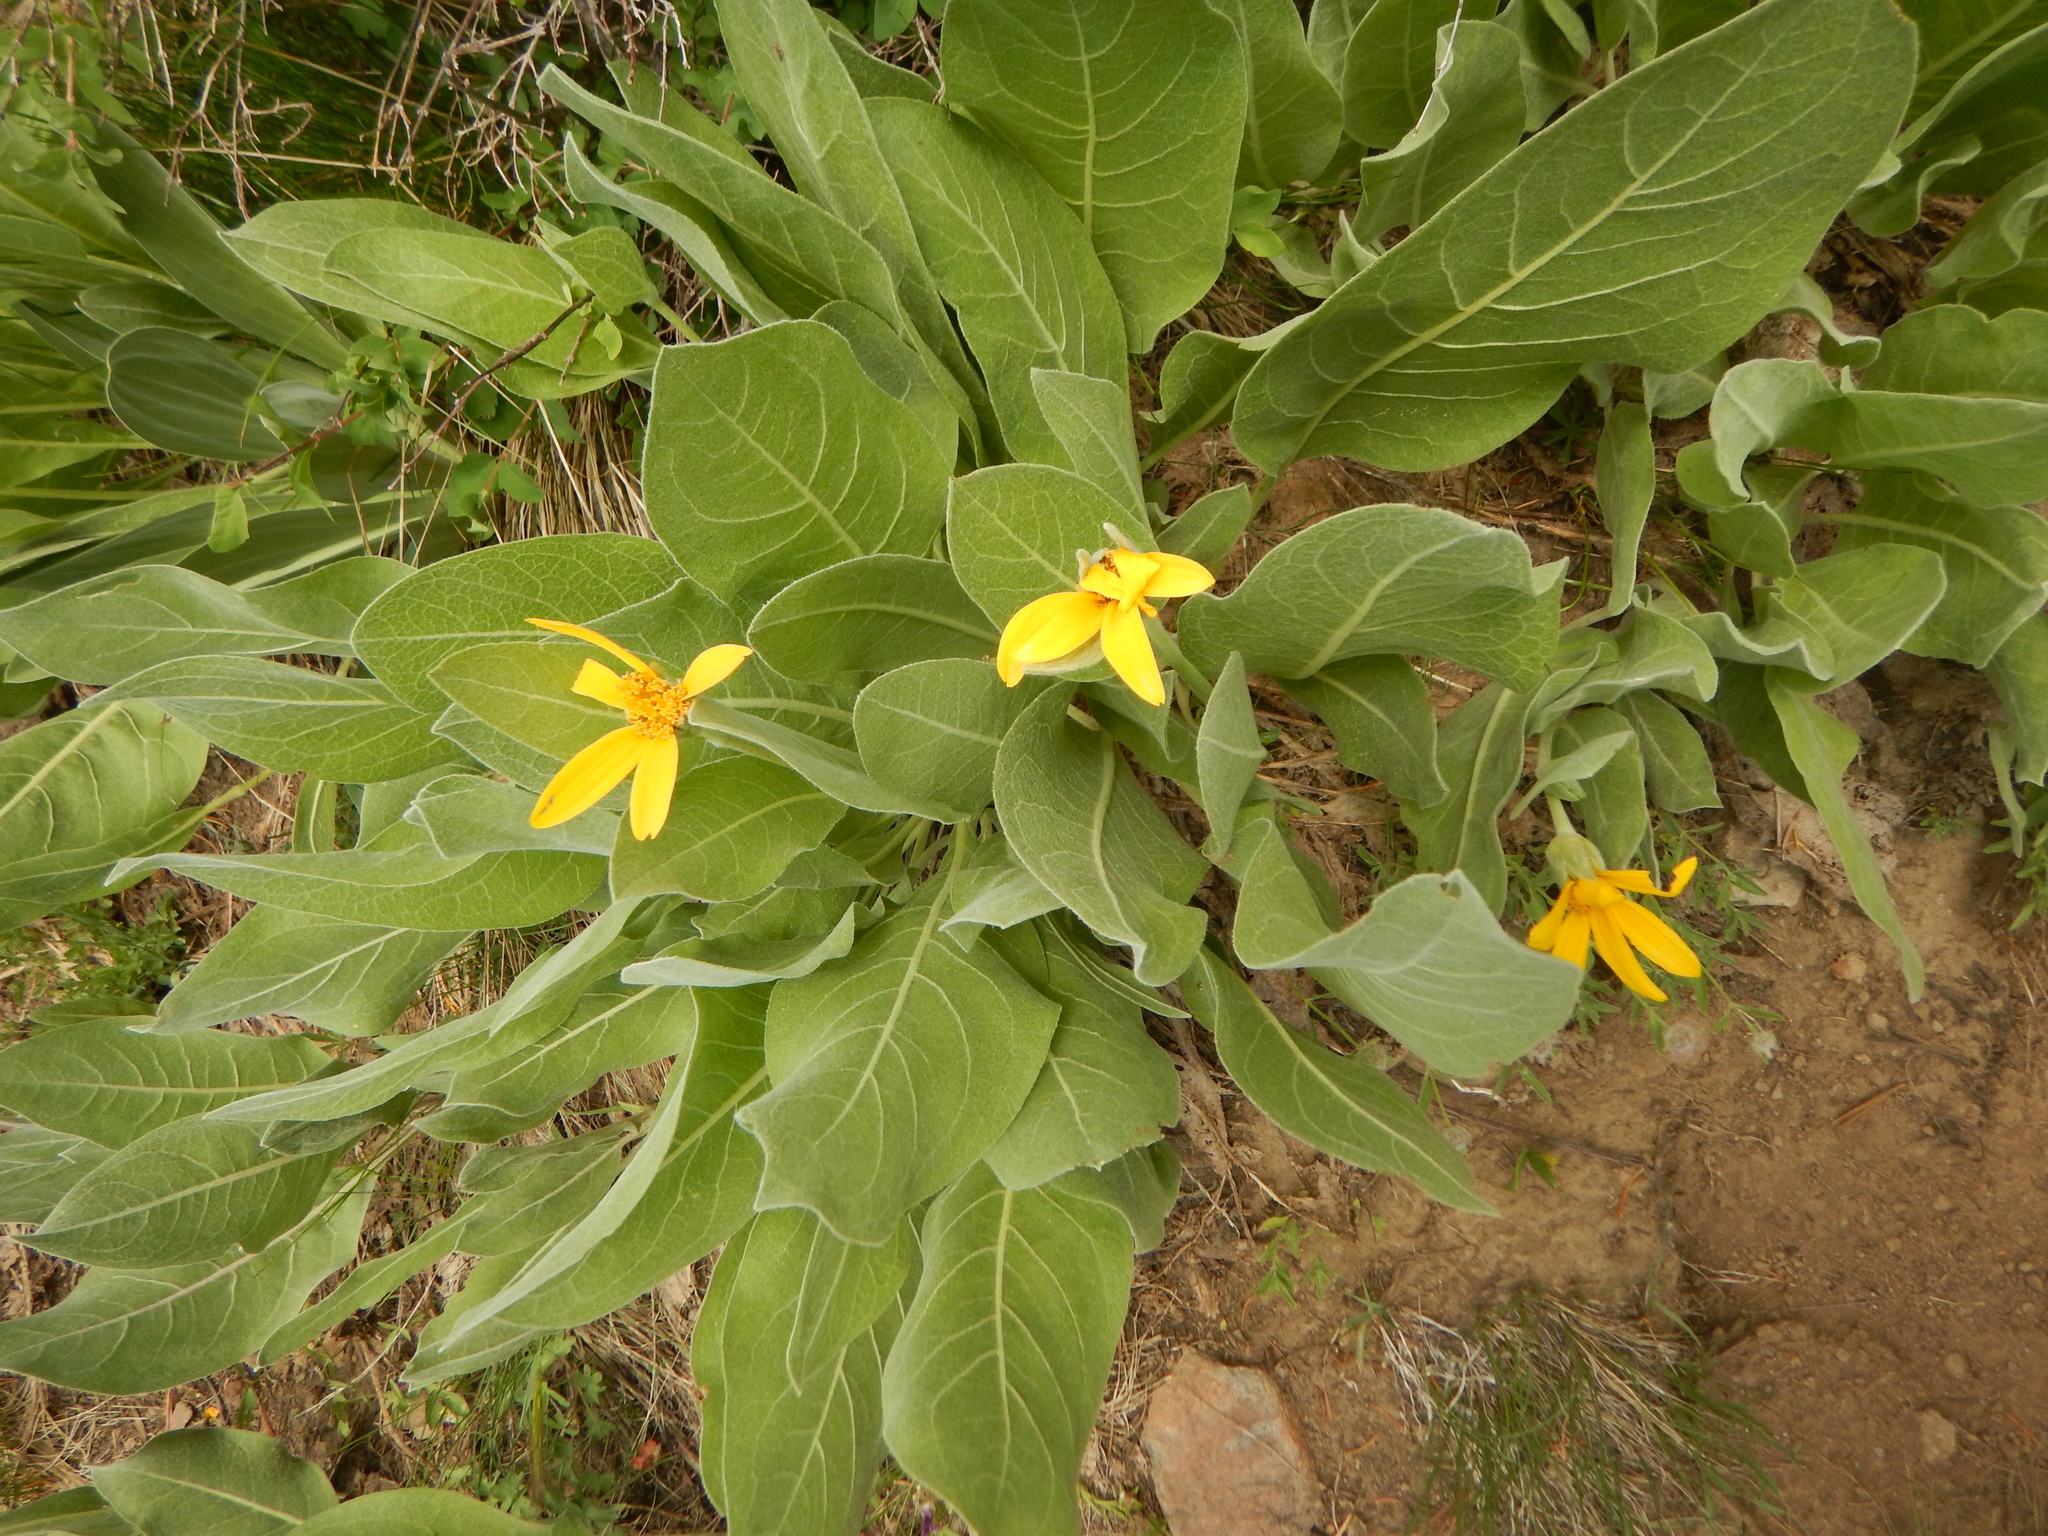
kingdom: Plantae
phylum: Tracheophyta
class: Magnoliopsida
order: Asterales
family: Asteraceae
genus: Wyethia
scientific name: Wyethia mollis
